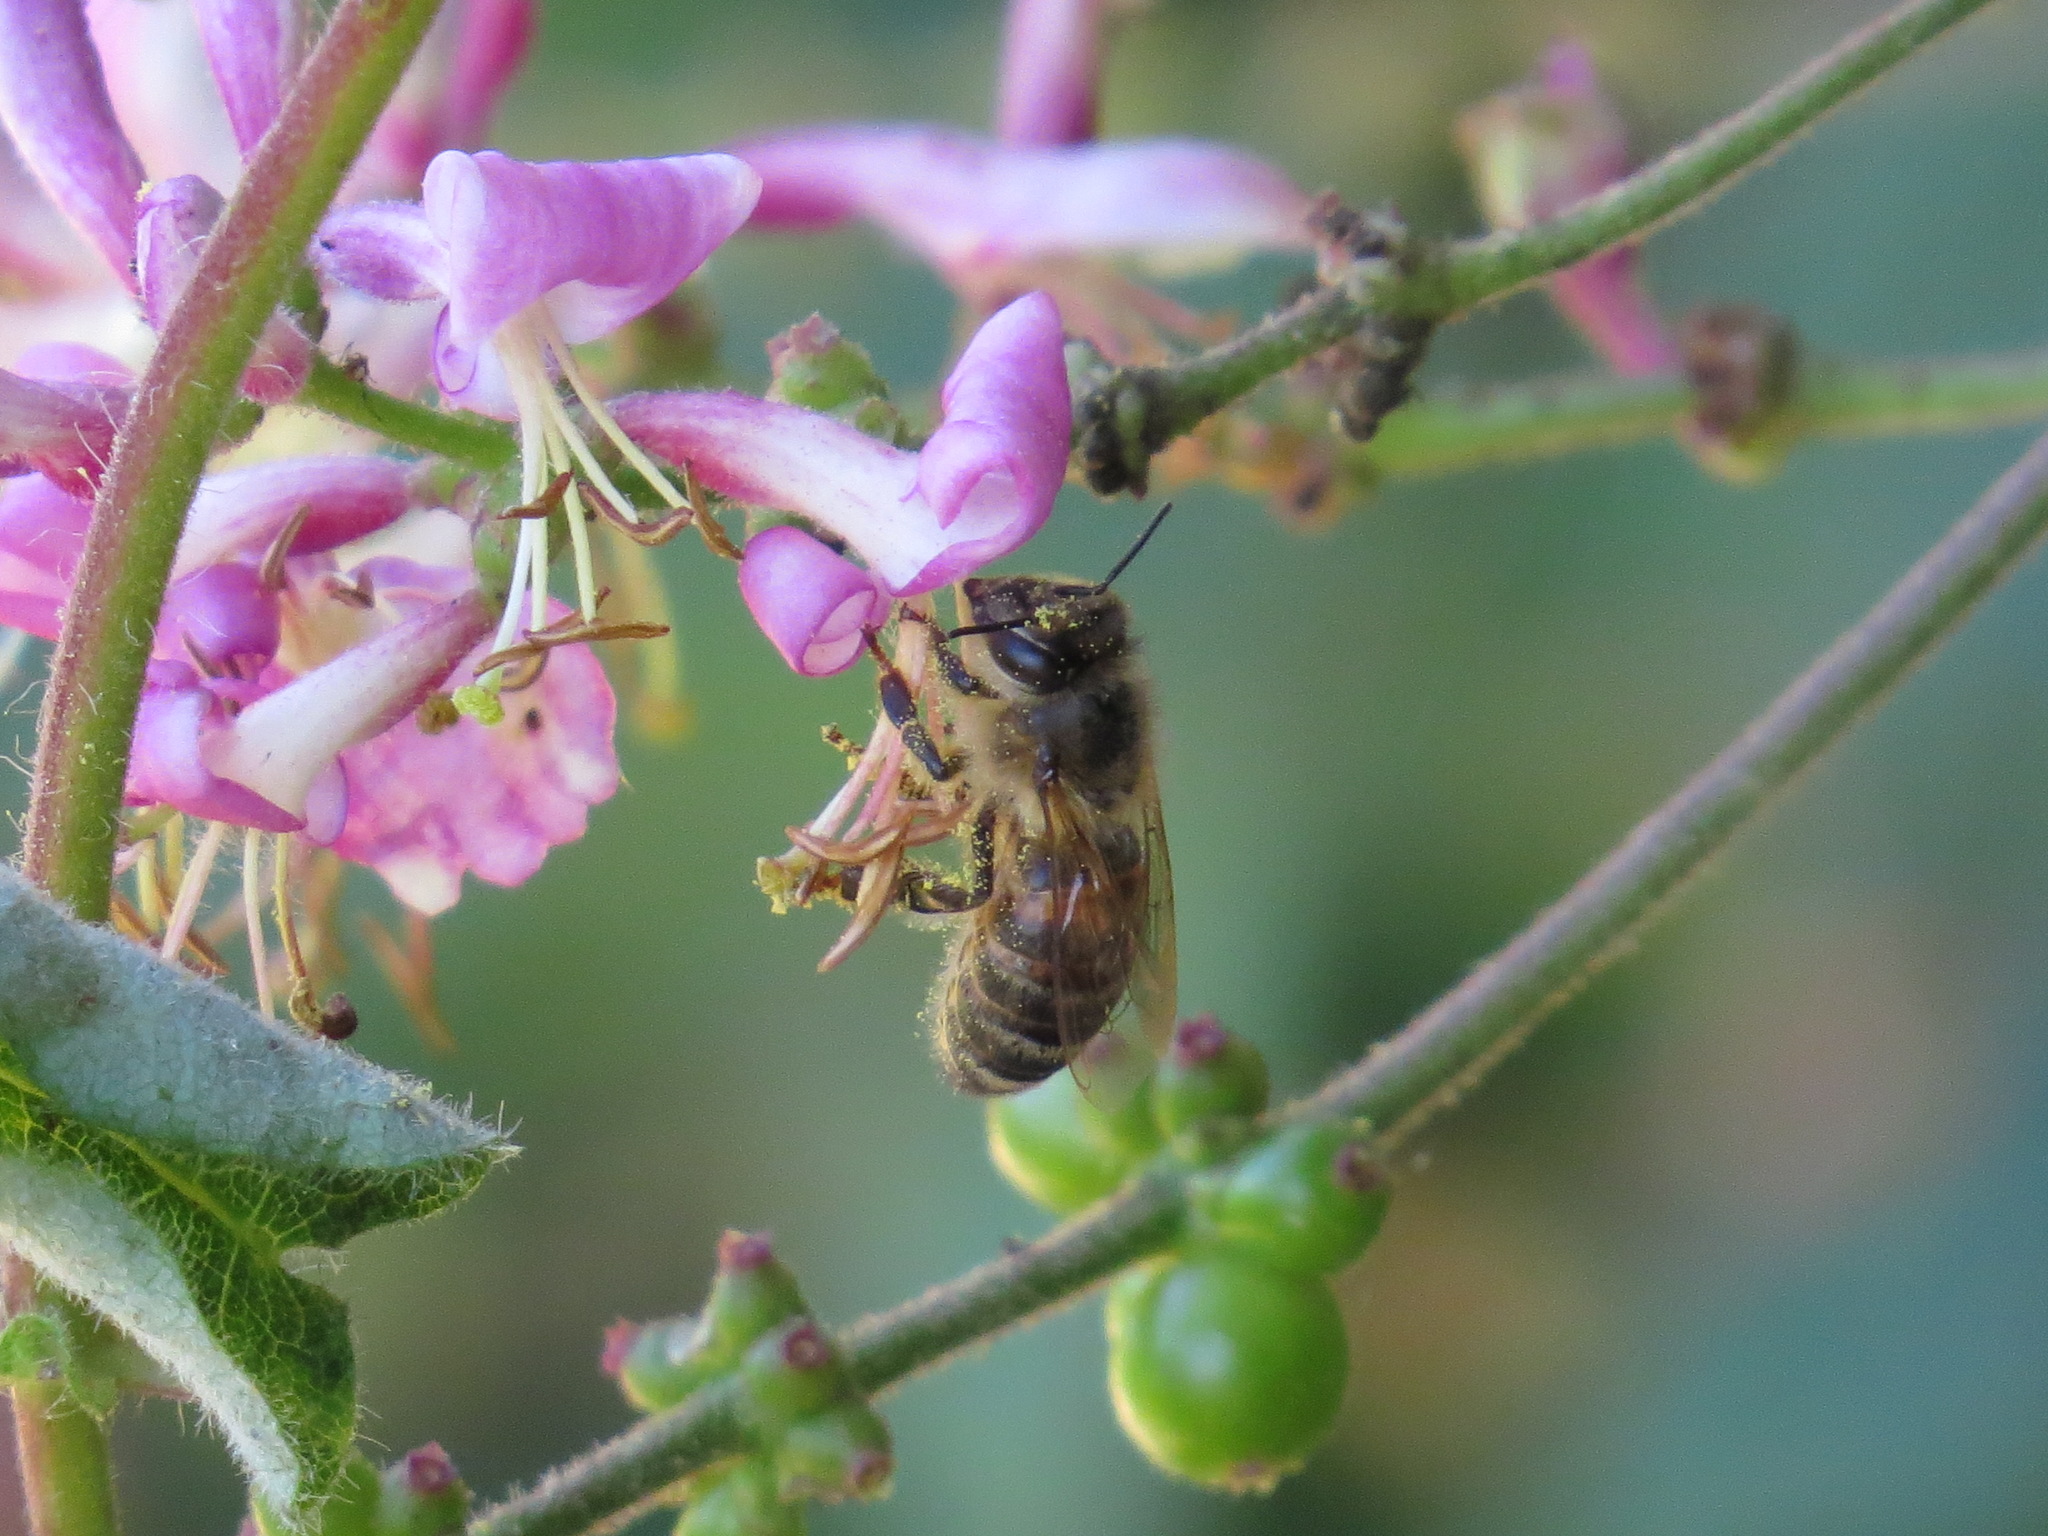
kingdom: Animalia
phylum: Arthropoda
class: Insecta
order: Hymenoptera
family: Apidae
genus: Apis
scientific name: Apis mellifera
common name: Honey bee
